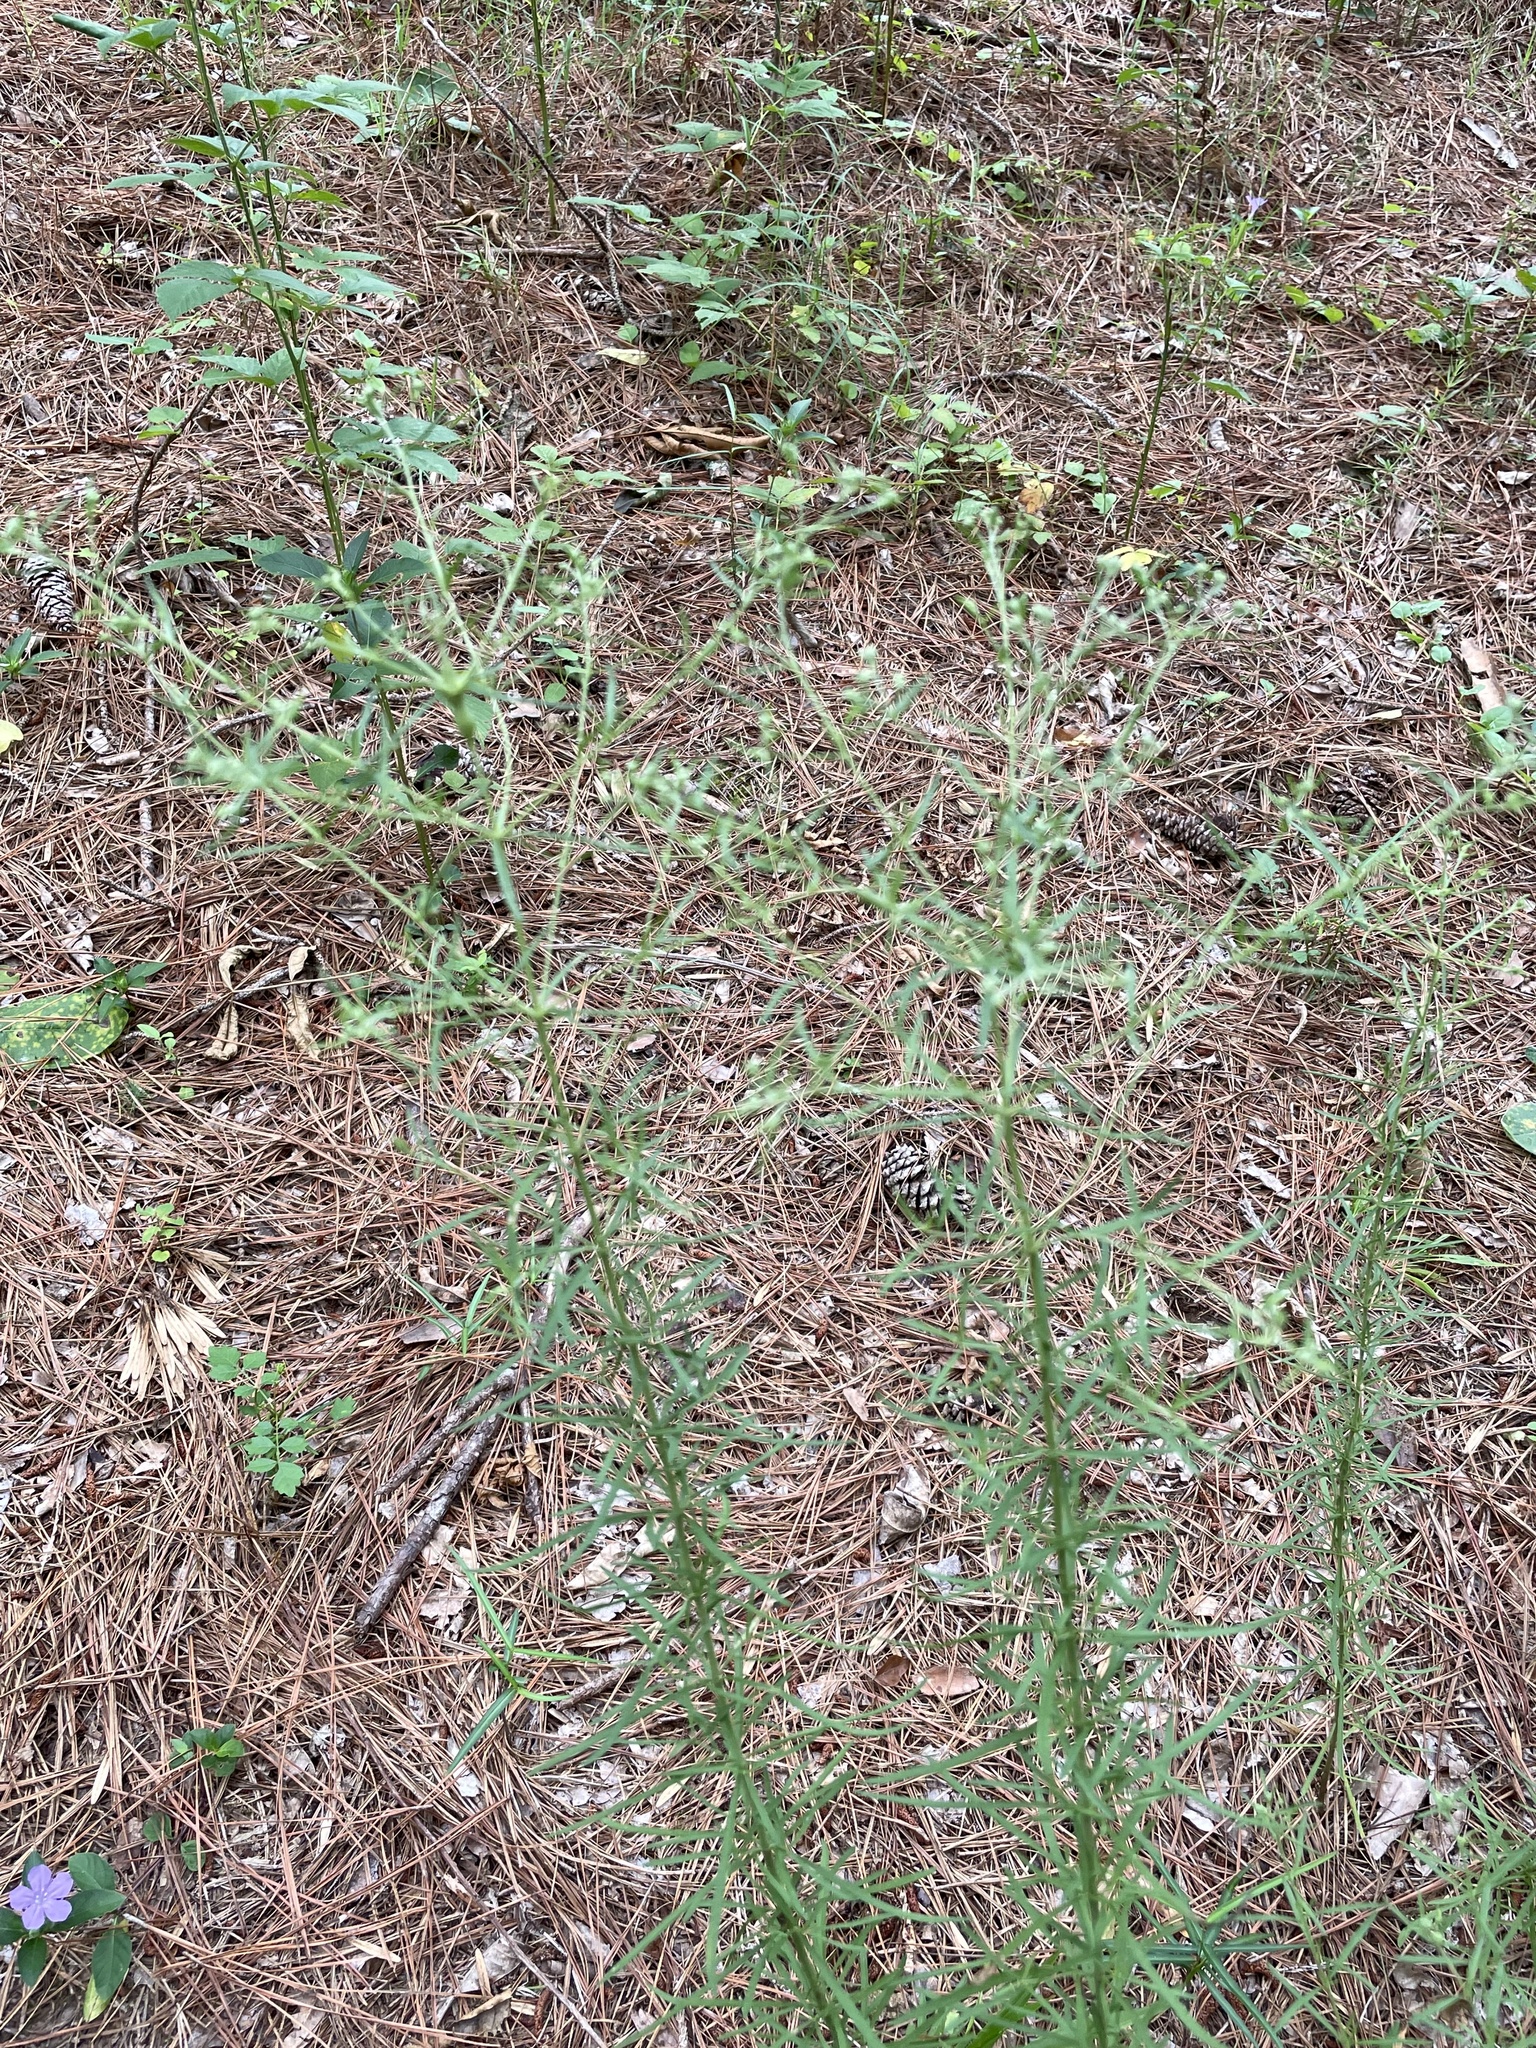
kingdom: Plantae
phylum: Tracheophyta
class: Magnoliopsida
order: Asterales
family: Asteraceae
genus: Eupatorium
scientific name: Eupatorium hyssopifolium
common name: Hyssop-leaf thoroughwort
